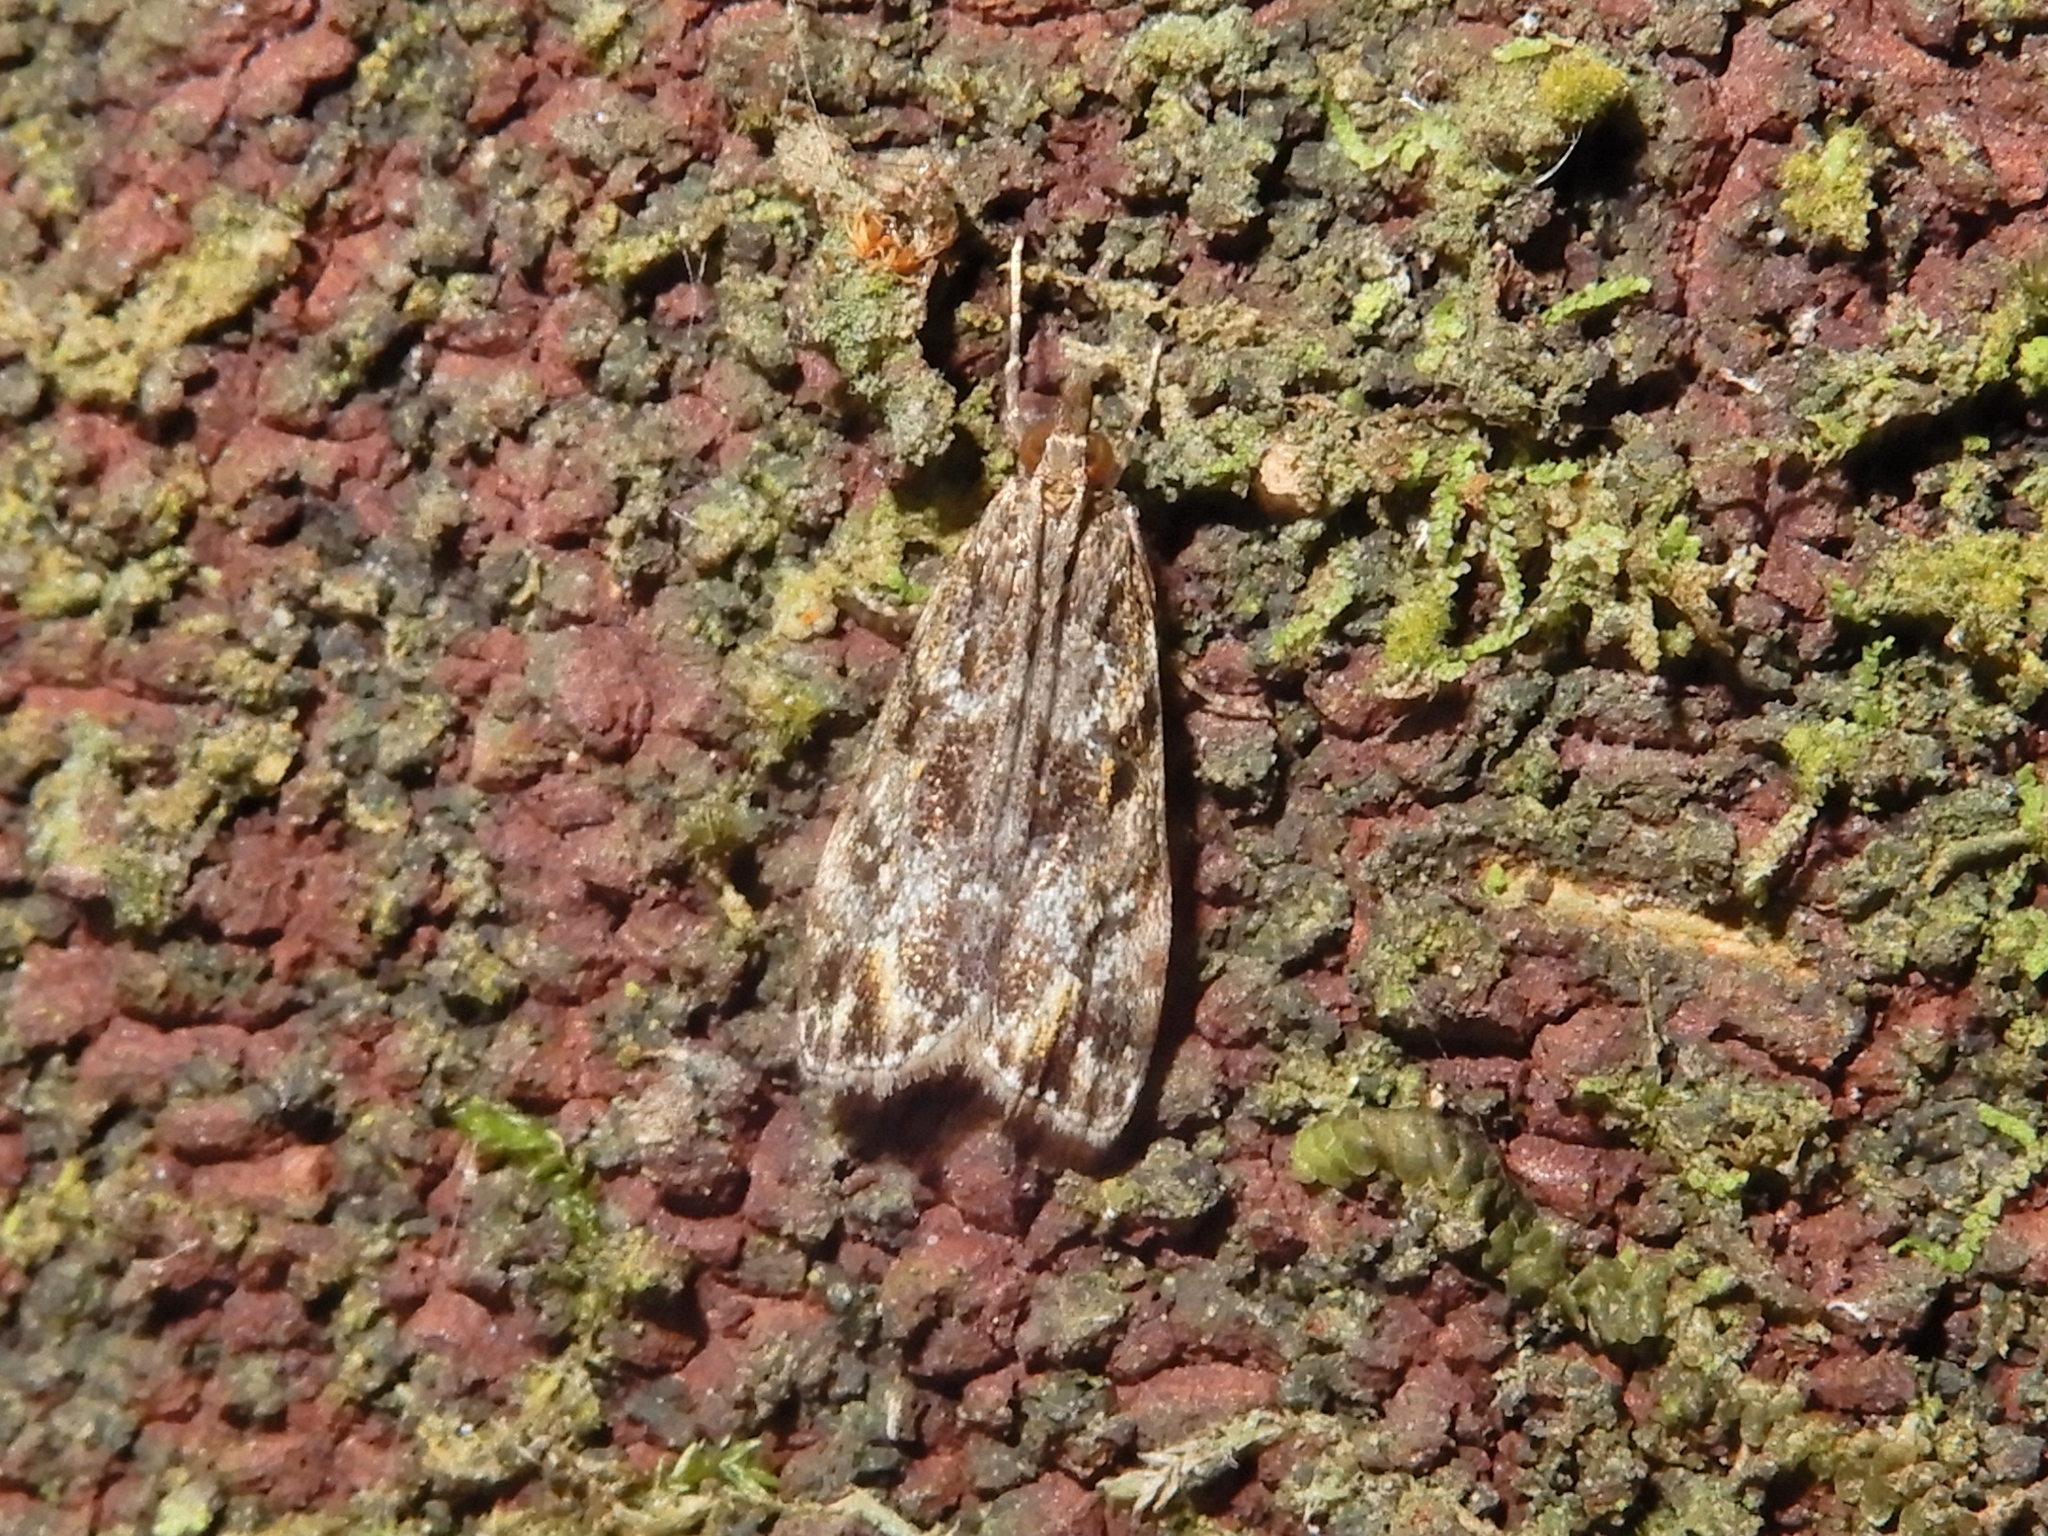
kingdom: Animalia
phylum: Arthropoda
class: Insecta
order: Lepidoptera
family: Crambidae
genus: Eudonia
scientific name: Eudonia minualis
